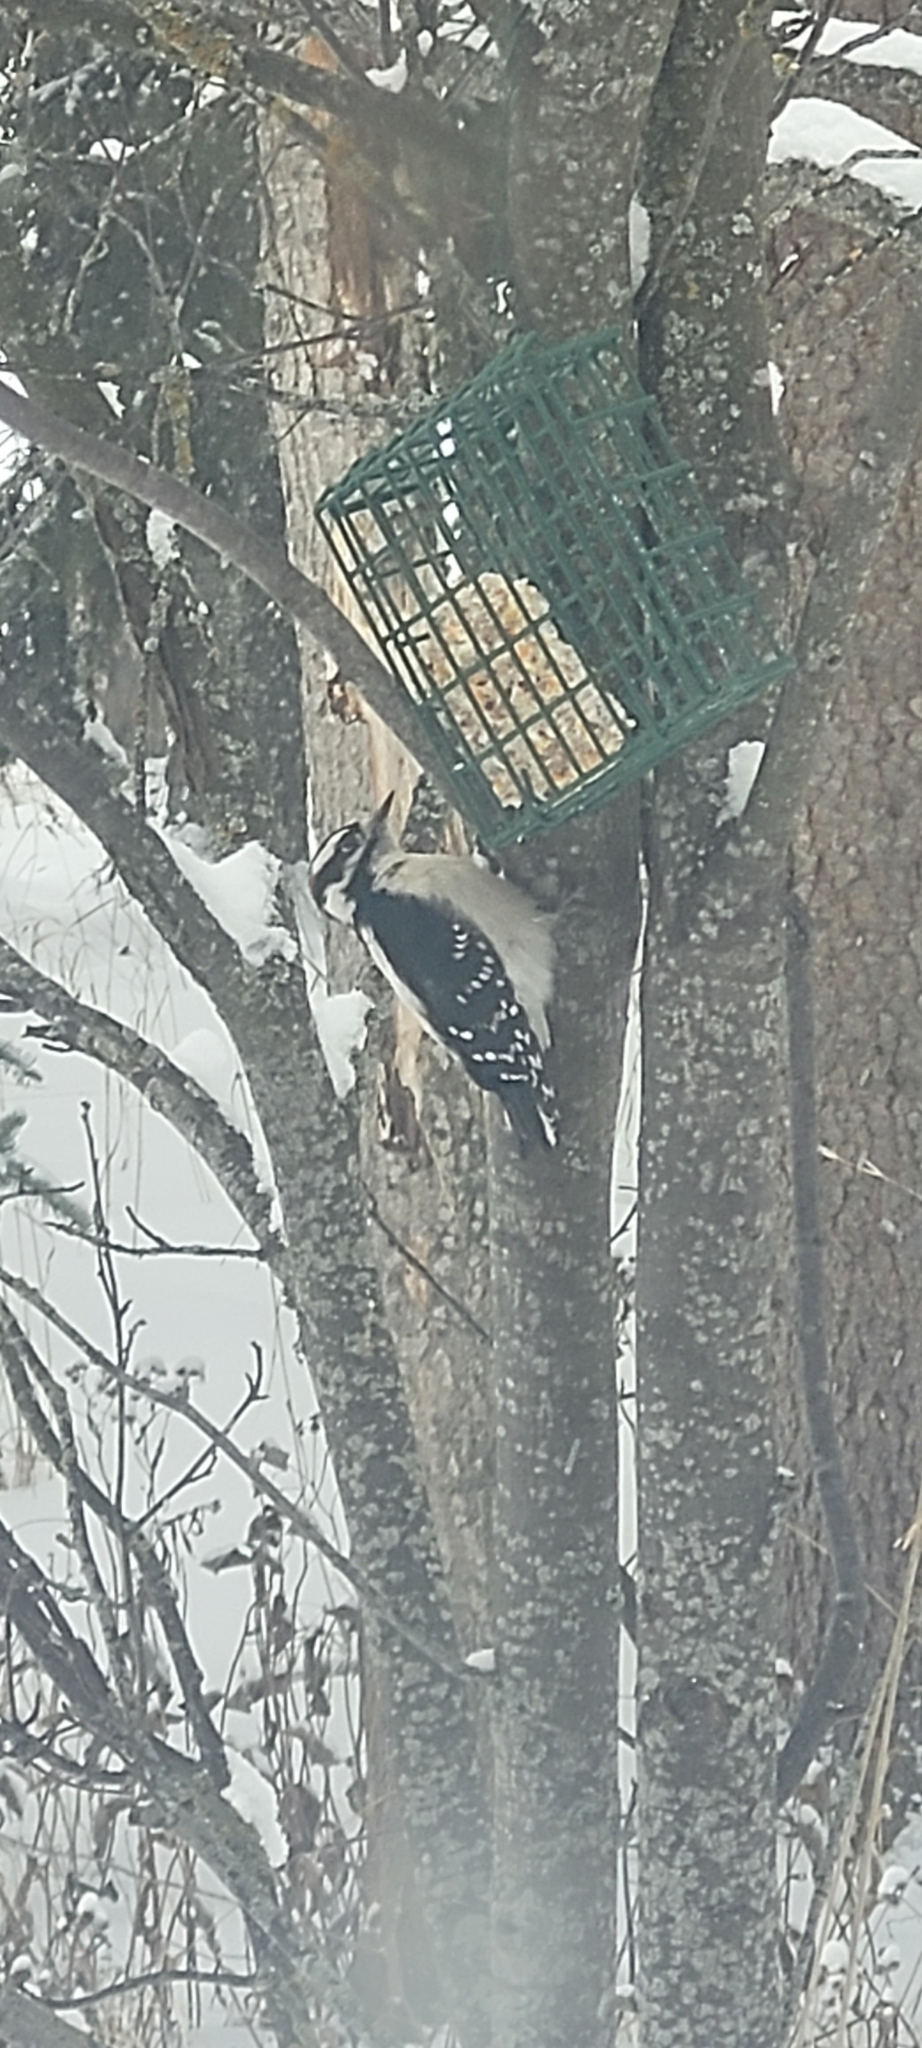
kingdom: Animalia
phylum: Chordata
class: Aves
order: Piciformes
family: Picidae
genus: Dryobates
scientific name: Dryobates pubescens
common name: Downy woodpecker
